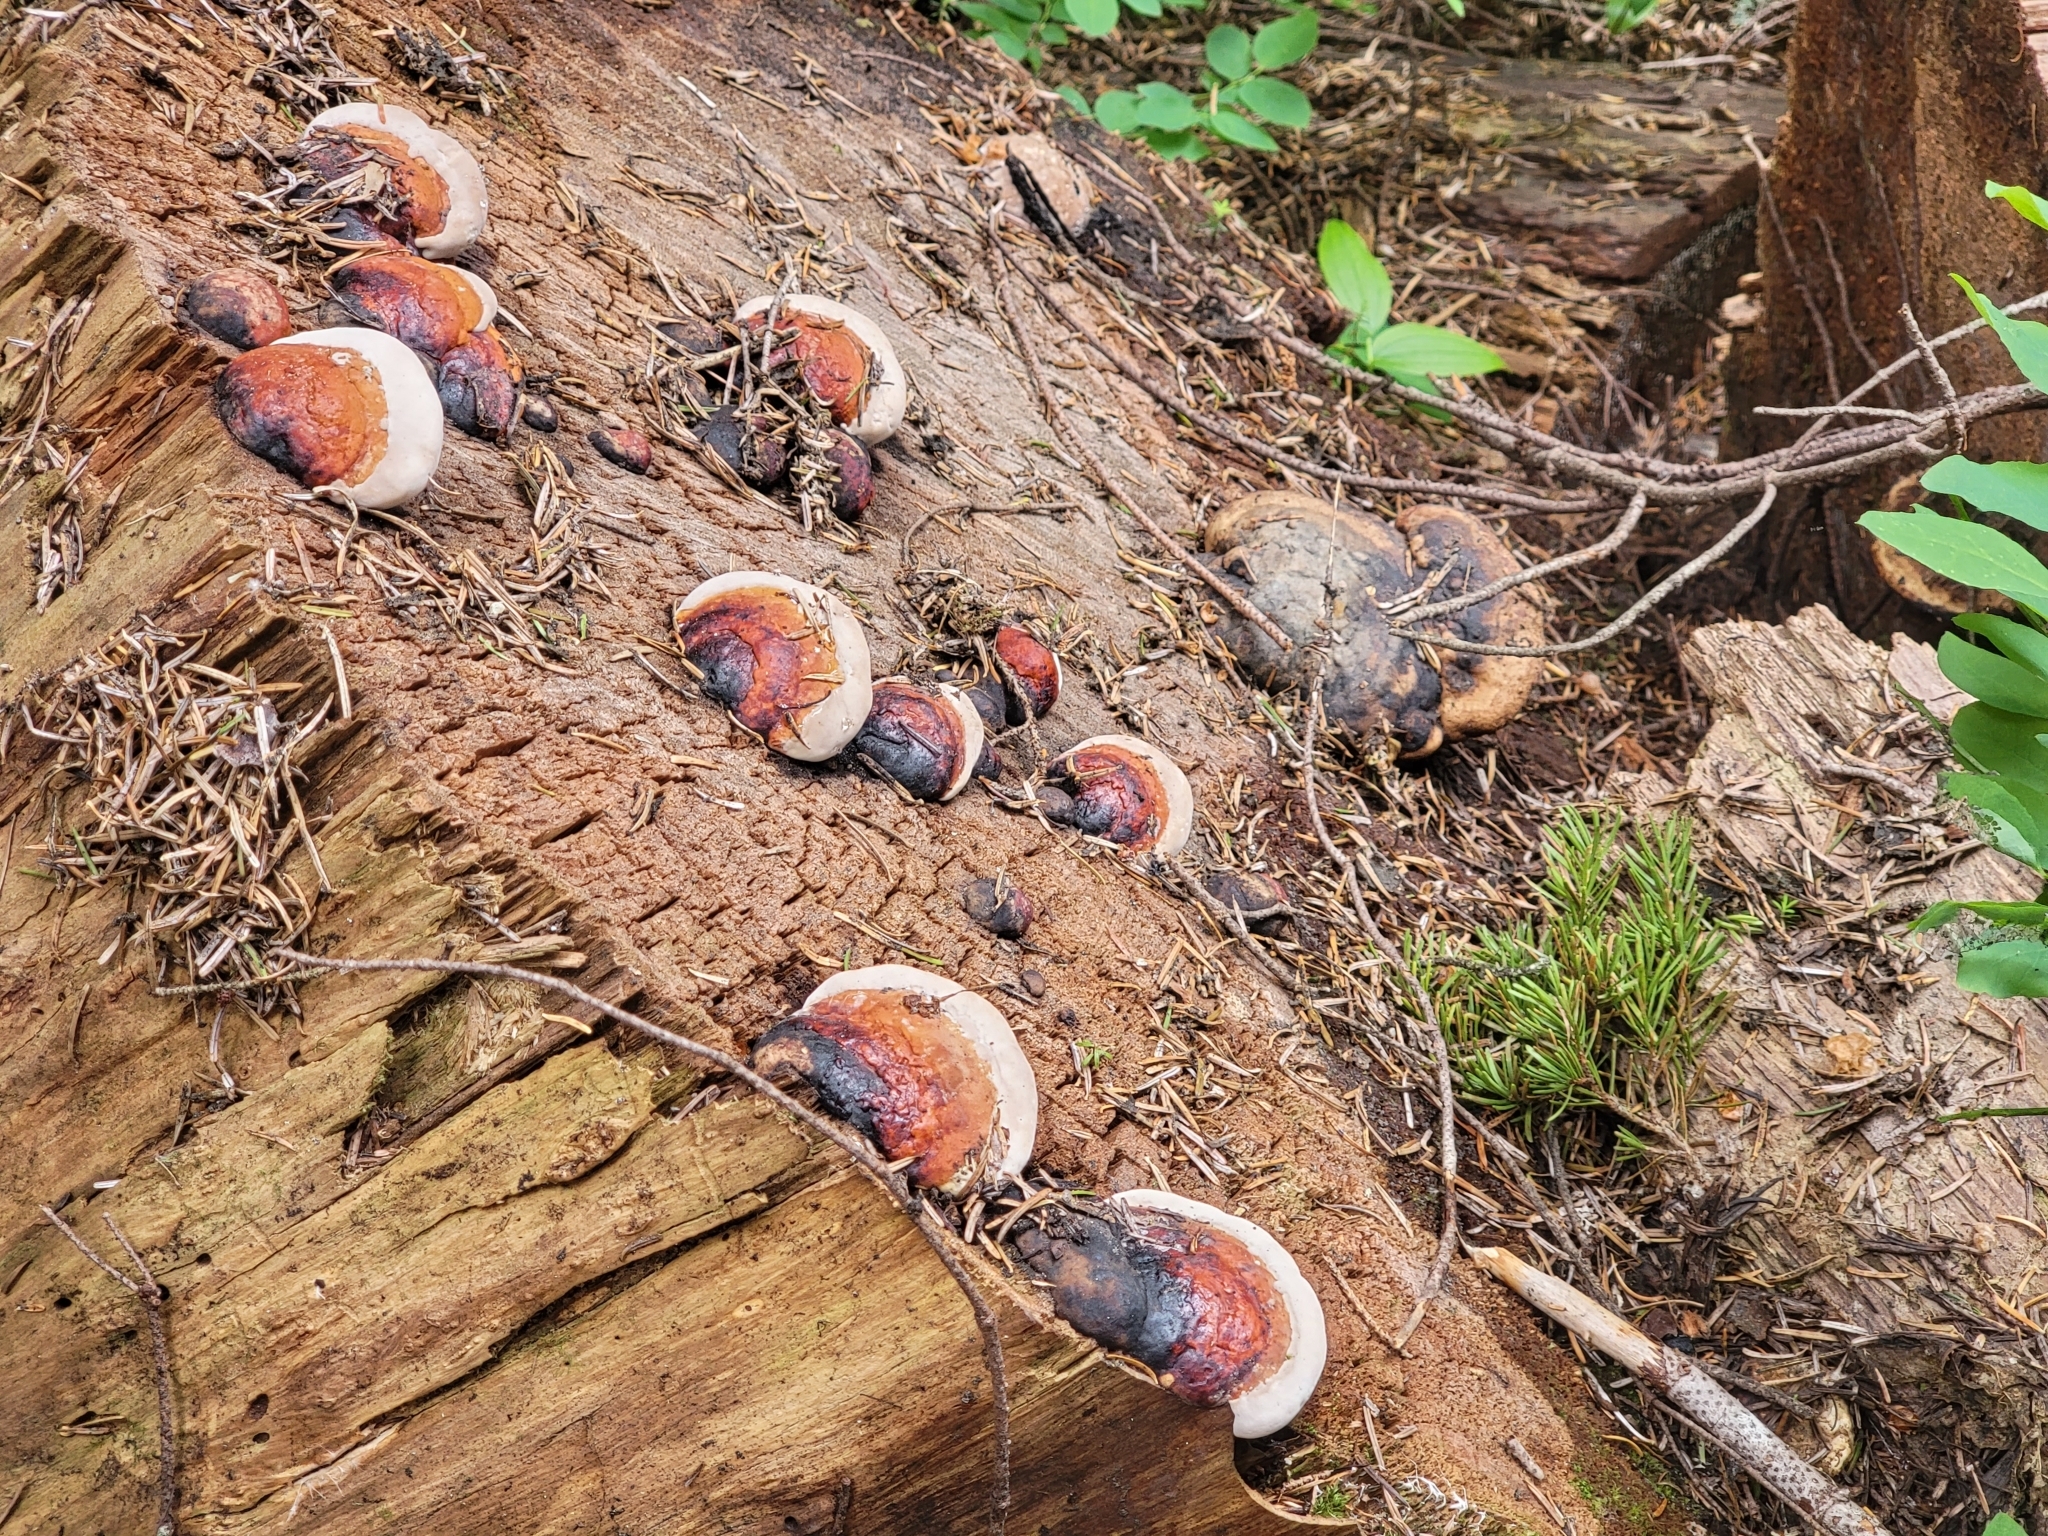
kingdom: Fungi
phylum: Basidiomycota
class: Agaricomycetes
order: Polyporales
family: Fomitopsidaceae
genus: Fomitopsis
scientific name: Fomitopsis mounceae
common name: Northern red belt
